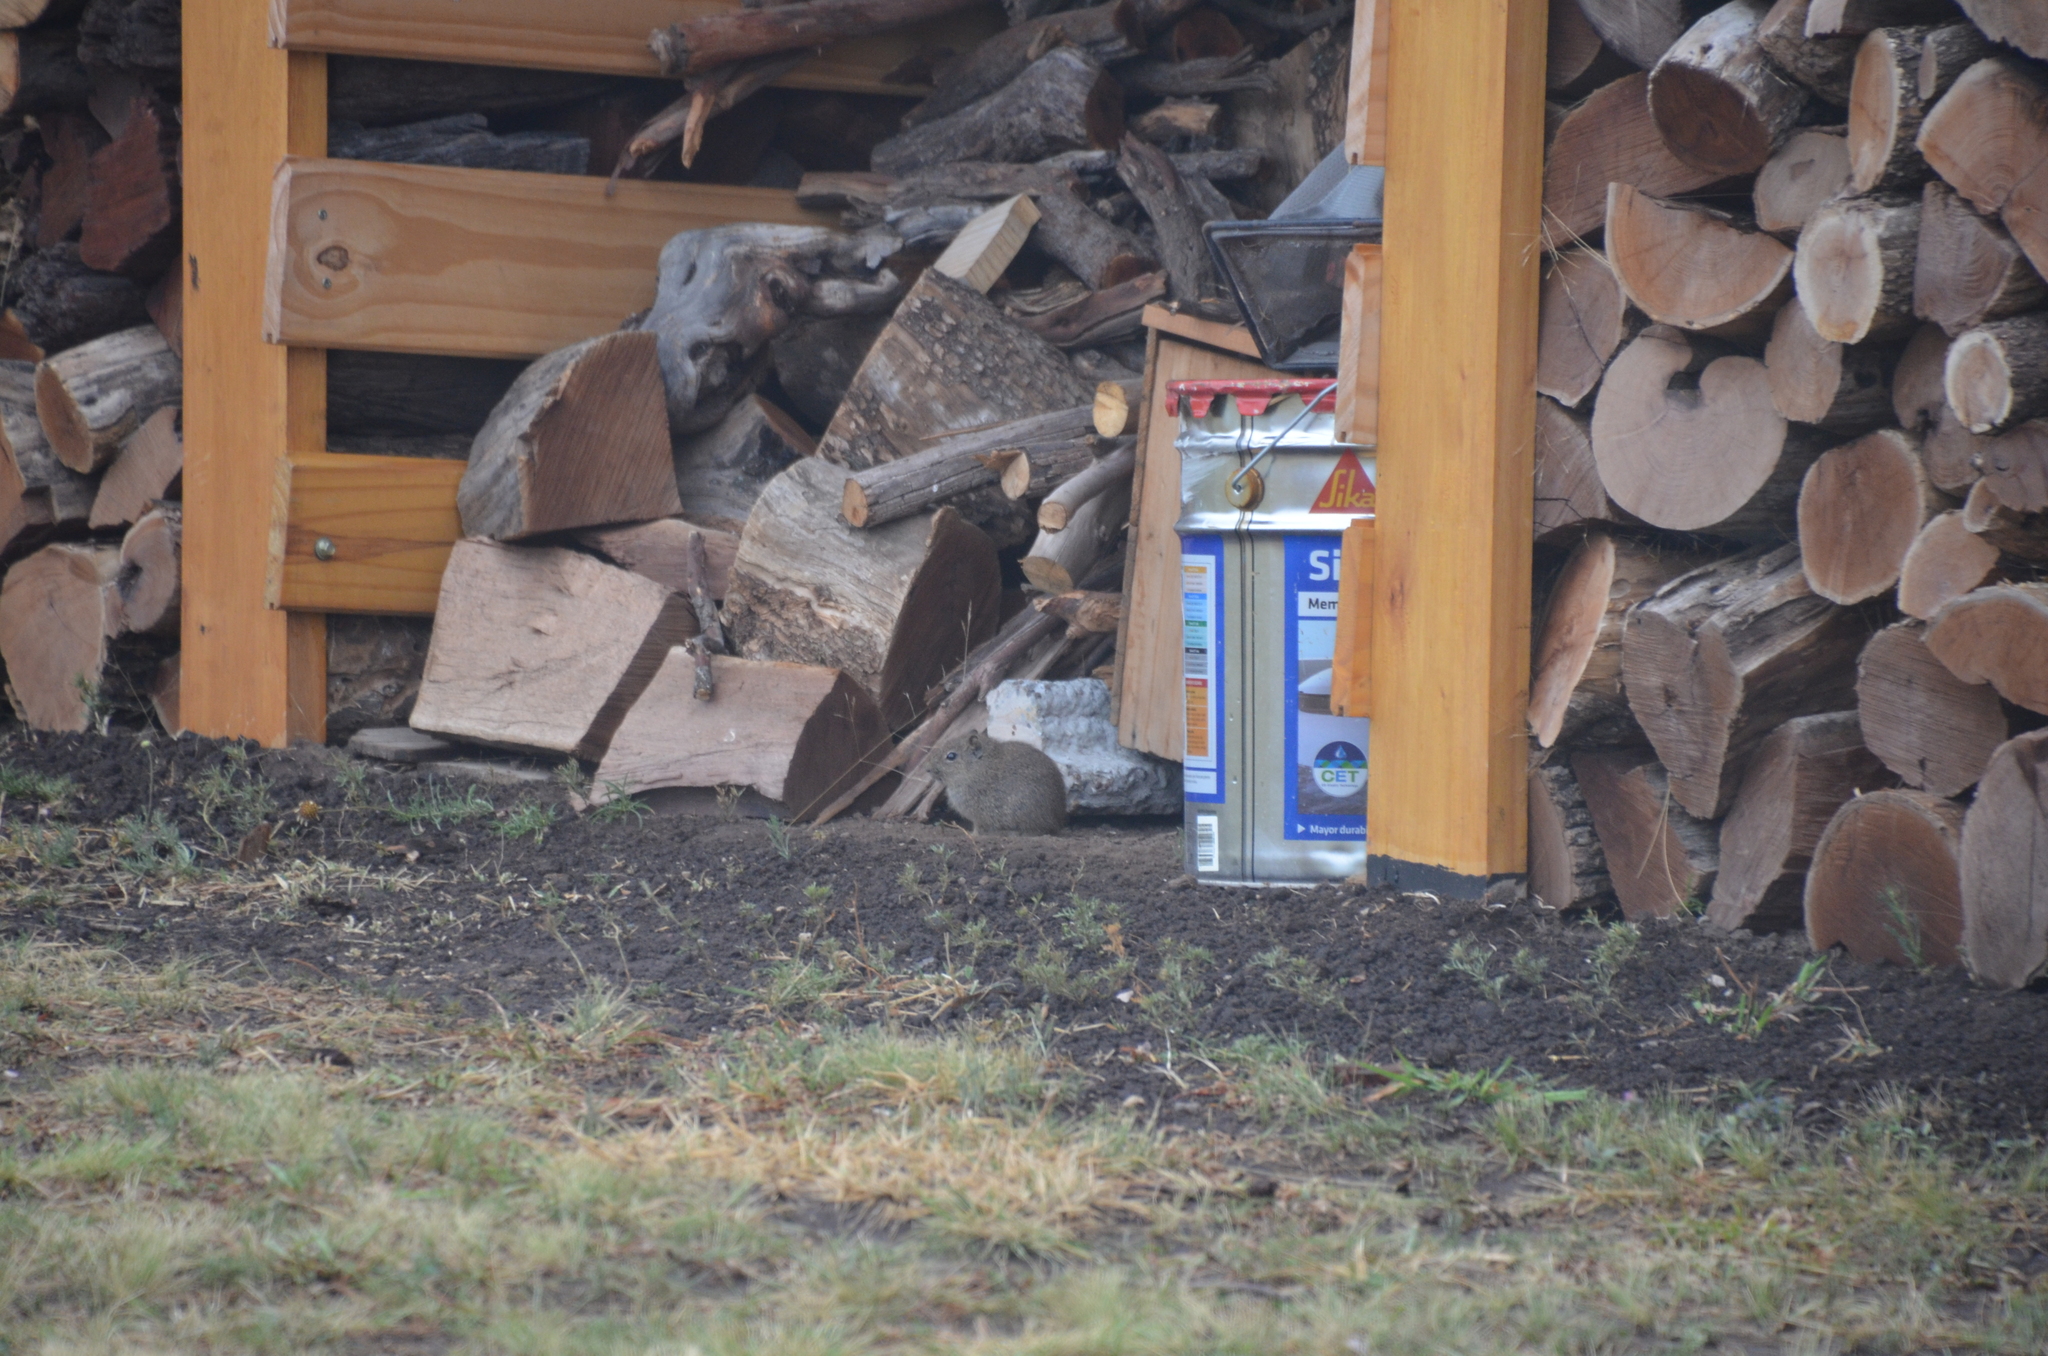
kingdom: Animalia
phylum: Chordata
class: Mammalia
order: Rodentia
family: Caviidae
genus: Galea
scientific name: Galea musteloides
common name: Common yellow-toothed cavy
